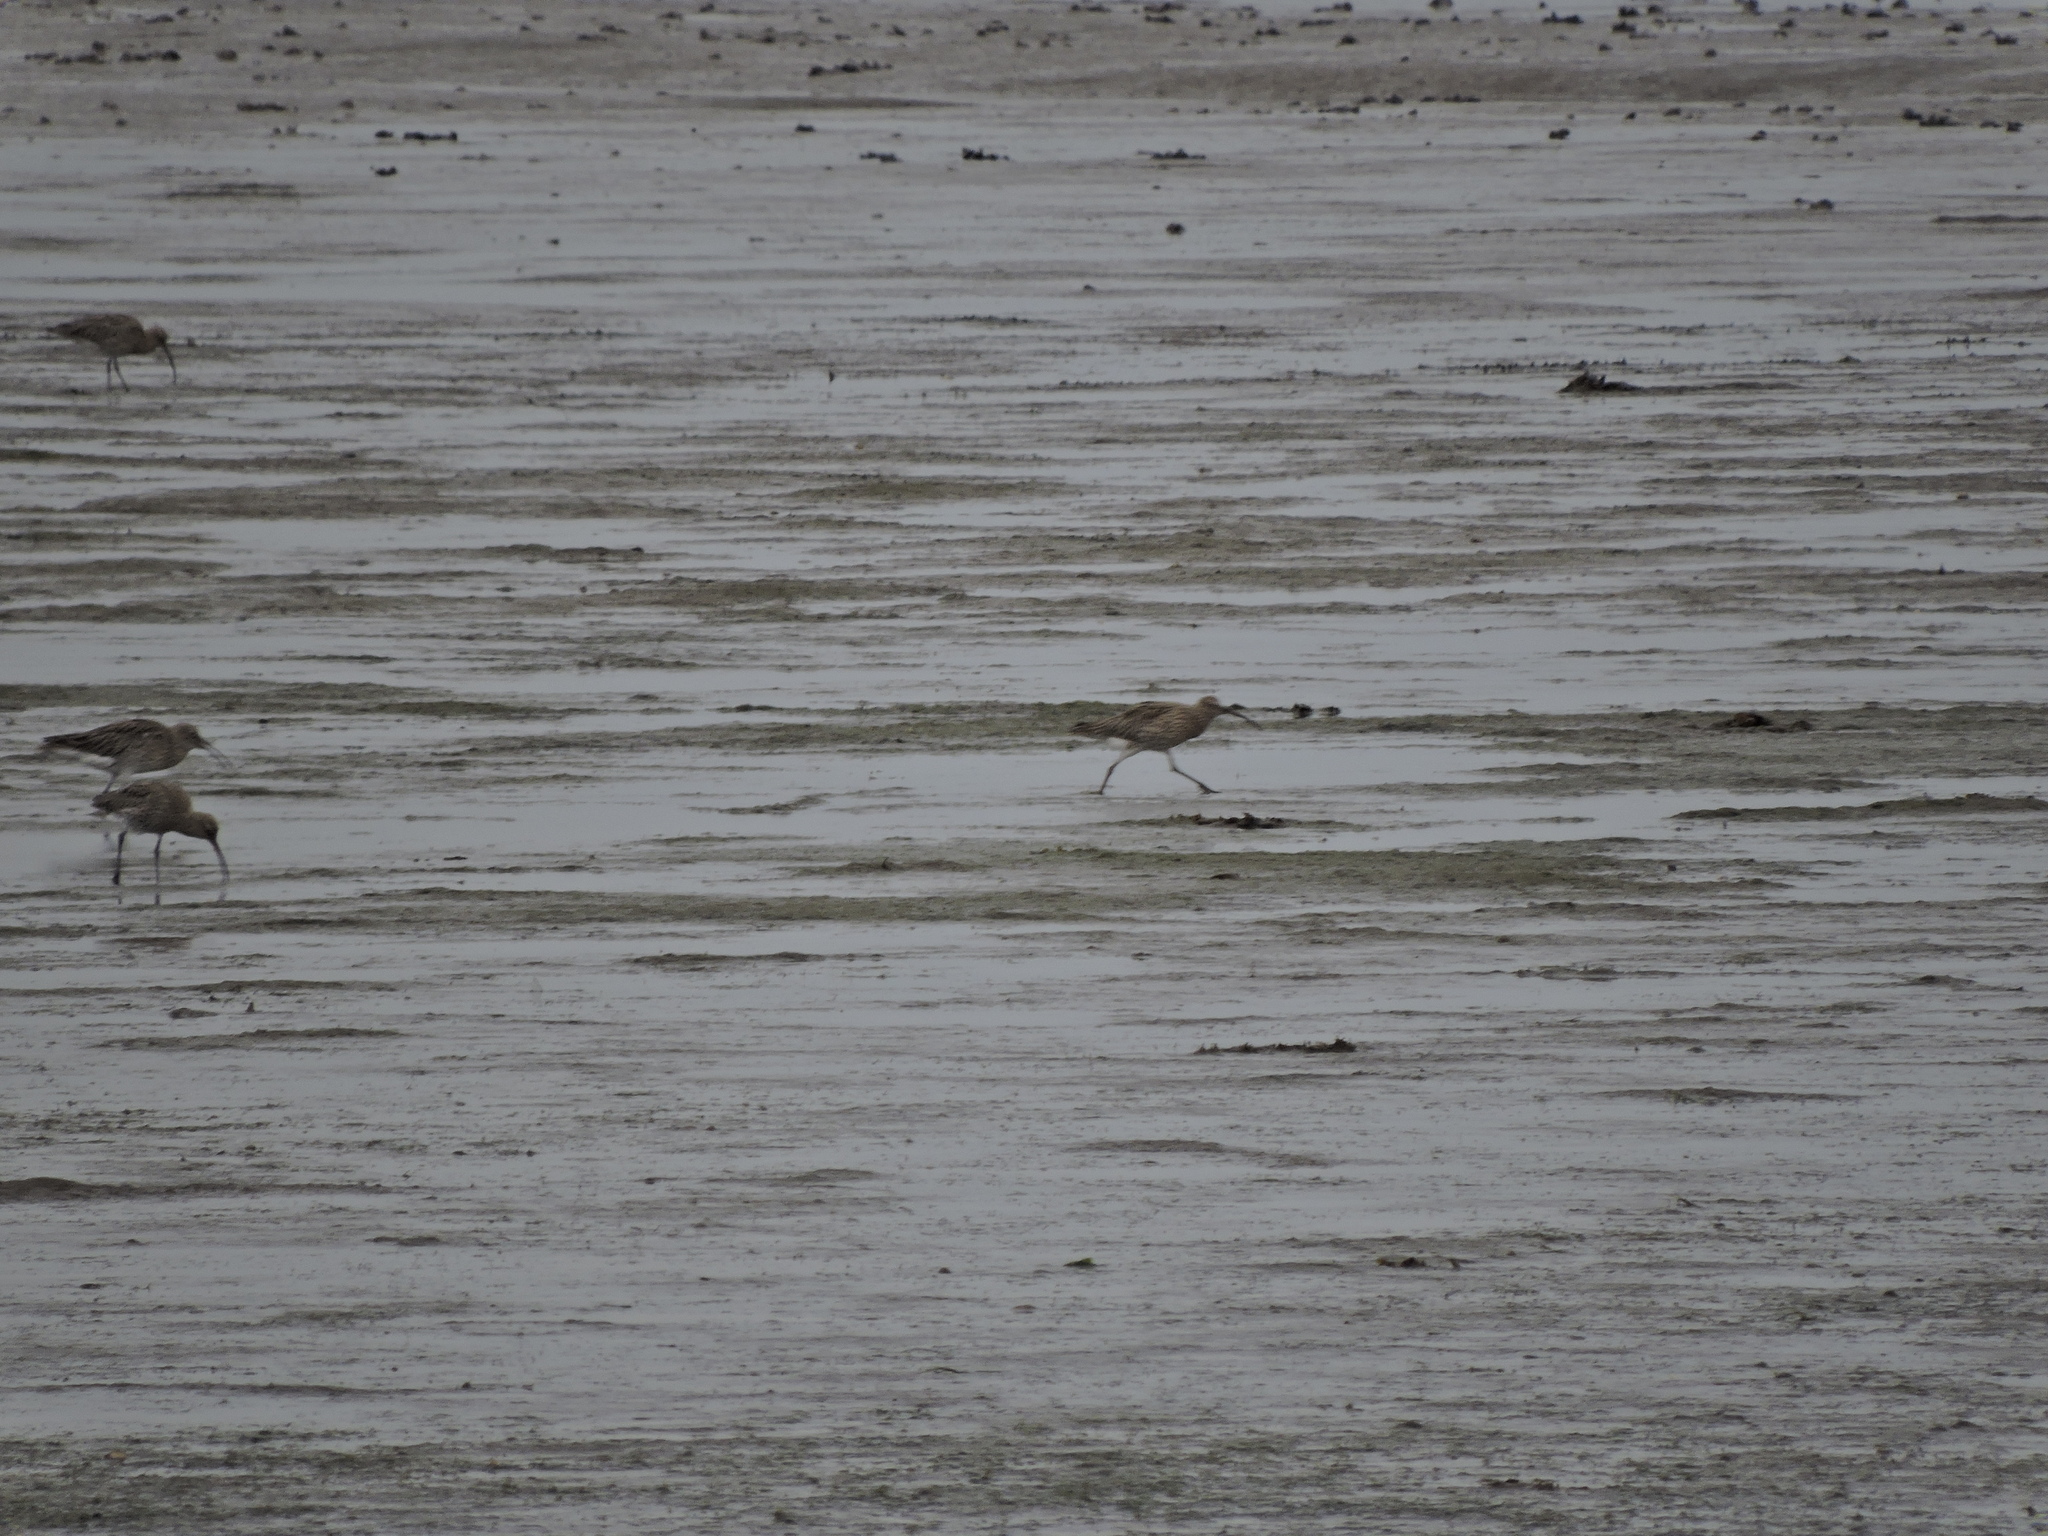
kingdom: Animalia
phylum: Chordata
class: Aves
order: Charadriiformes
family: Scolopacidae
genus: Numenius
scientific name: Numenius arquata
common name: Eurasian curlew
